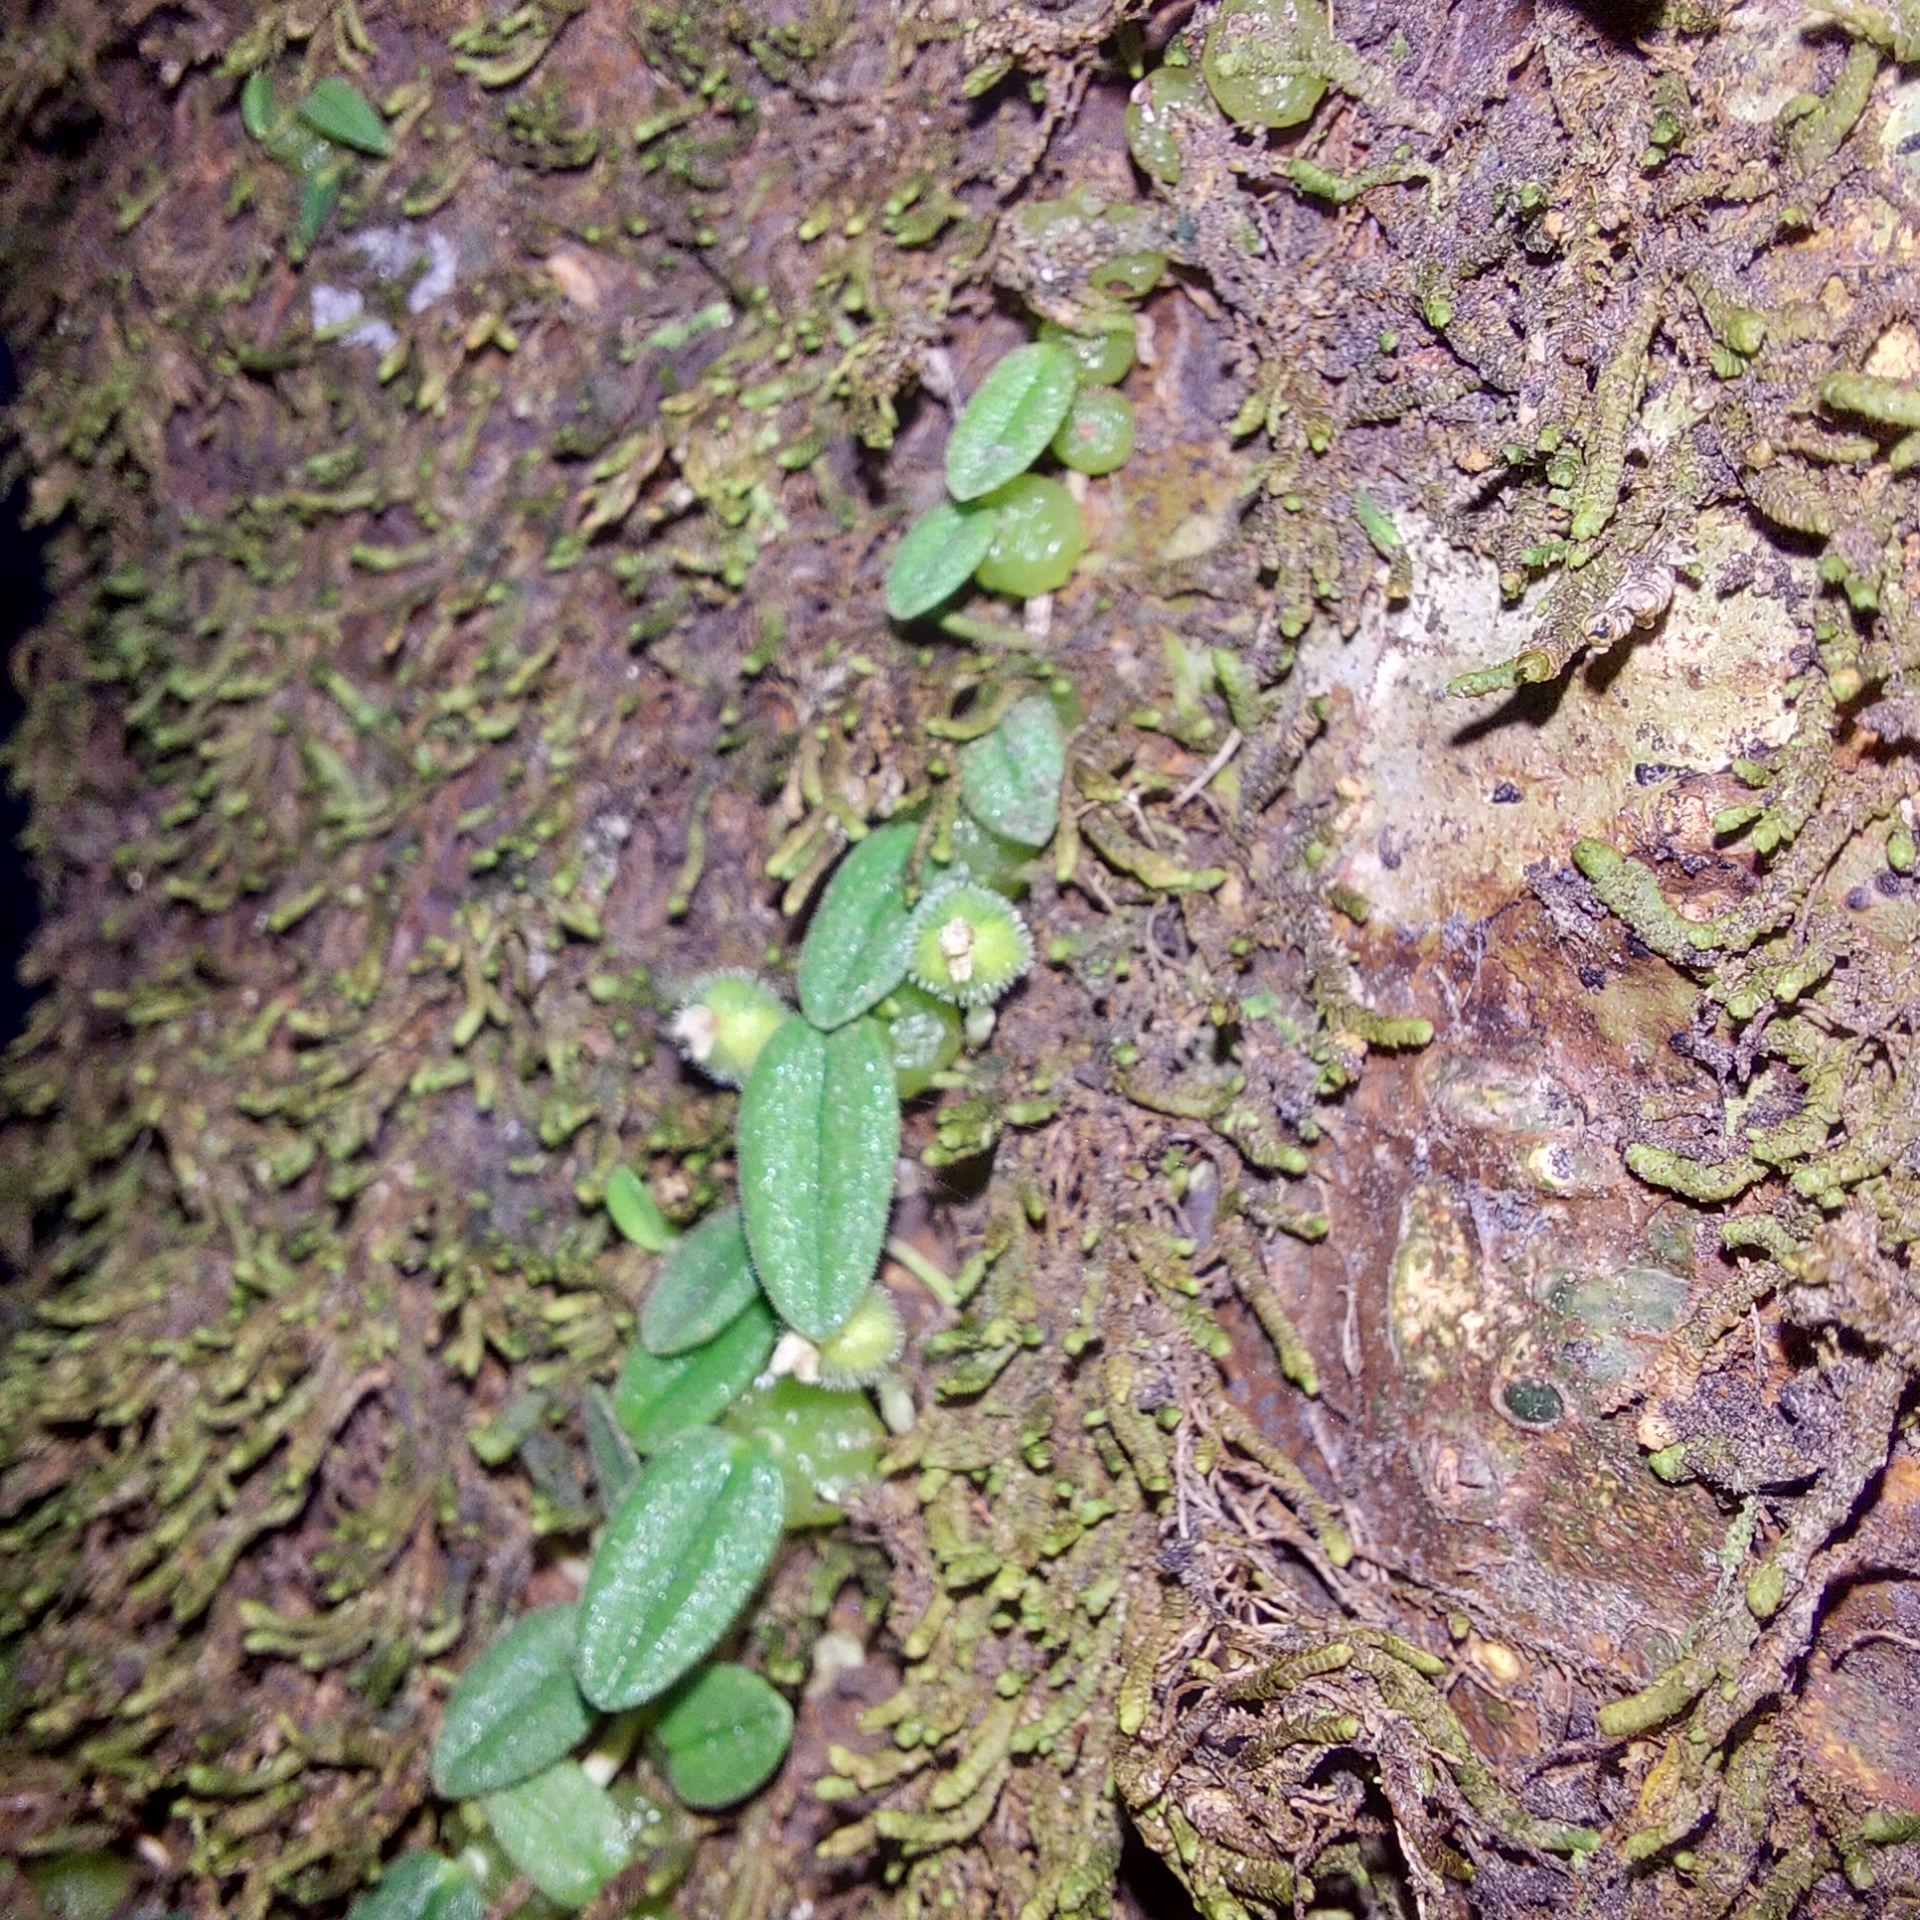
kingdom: Plantae
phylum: Tracheophyta
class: Liliopsida
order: Asparagales
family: Orchidaceae
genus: Bulbophyllum
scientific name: Bulbophyllum pygmaeum
